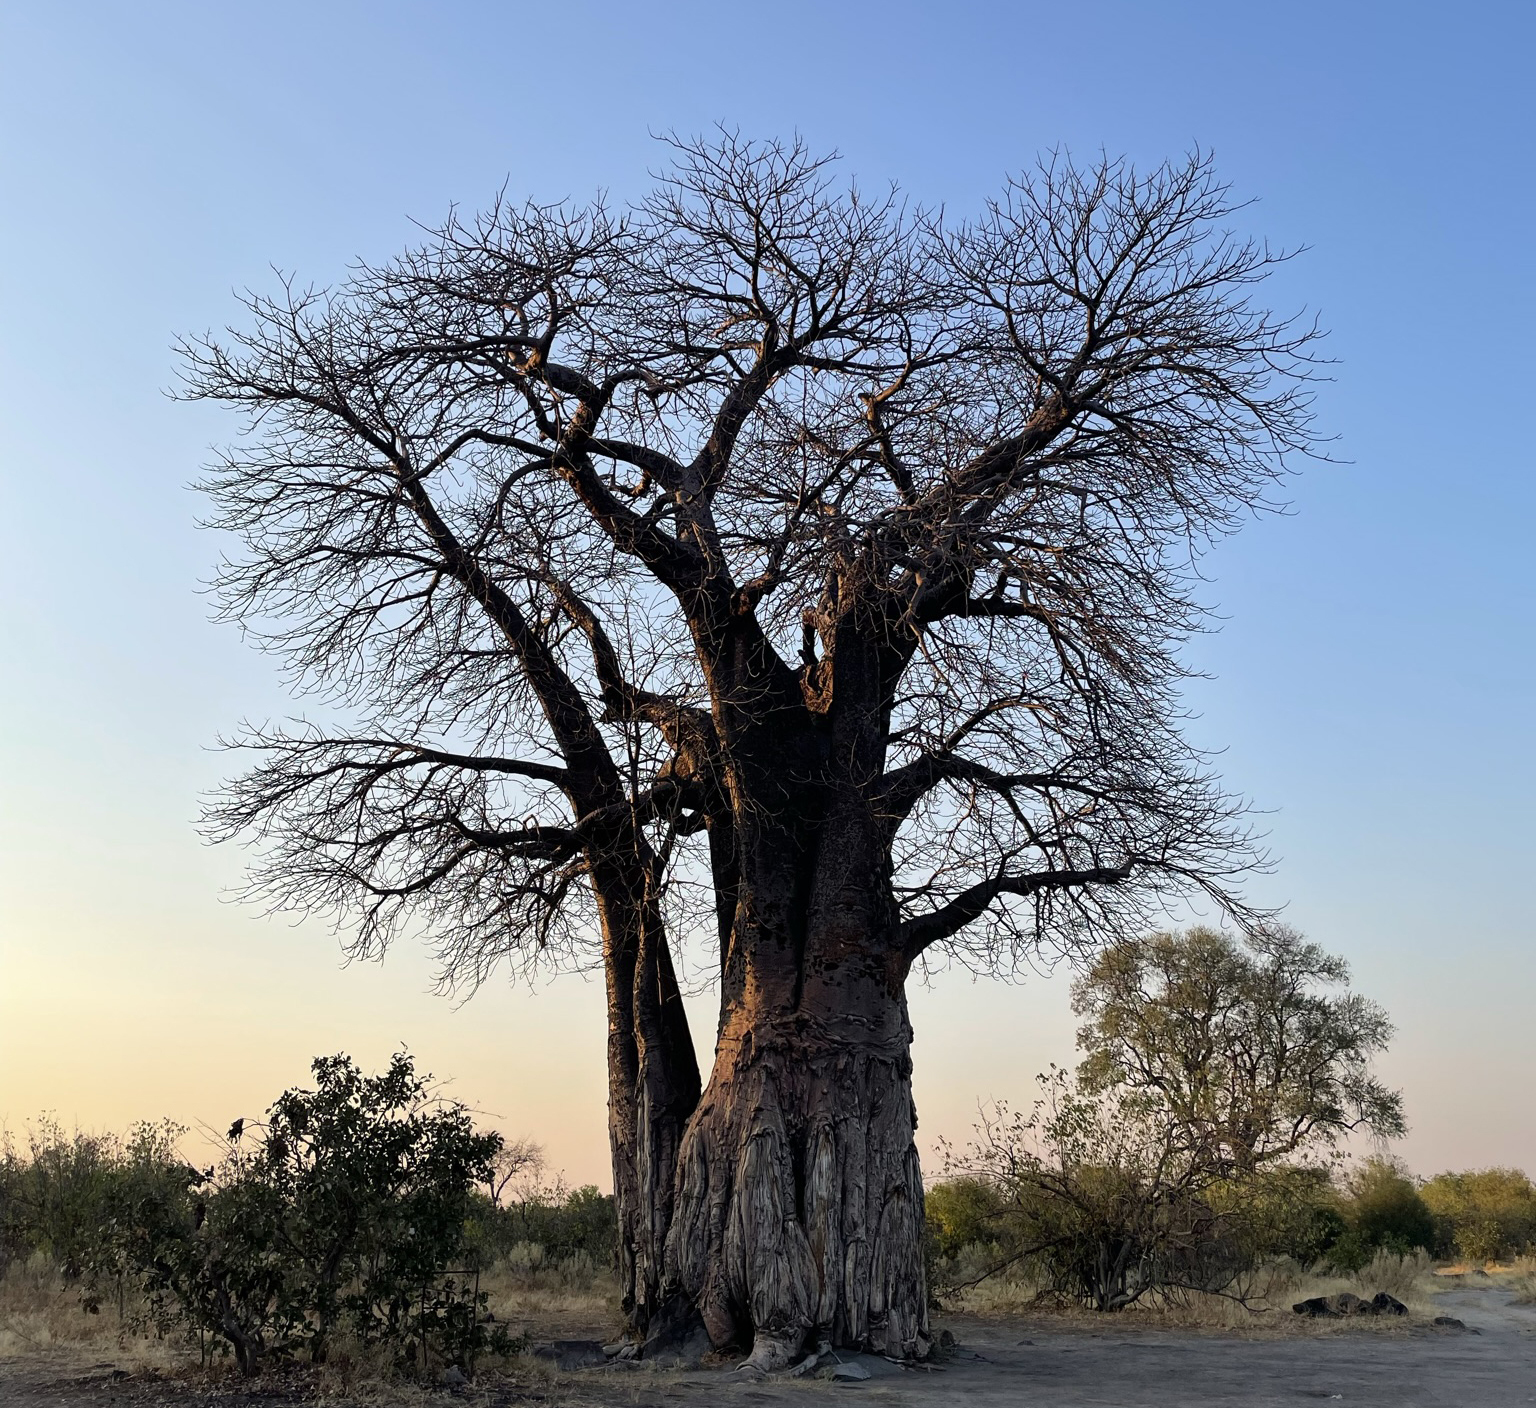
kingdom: Plantae
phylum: Tracheophyta
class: Magnoliopsida
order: Malvales
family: Malvaceae
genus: Adansonia
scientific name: Adansonia digitata
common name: Dead-rat-tree
